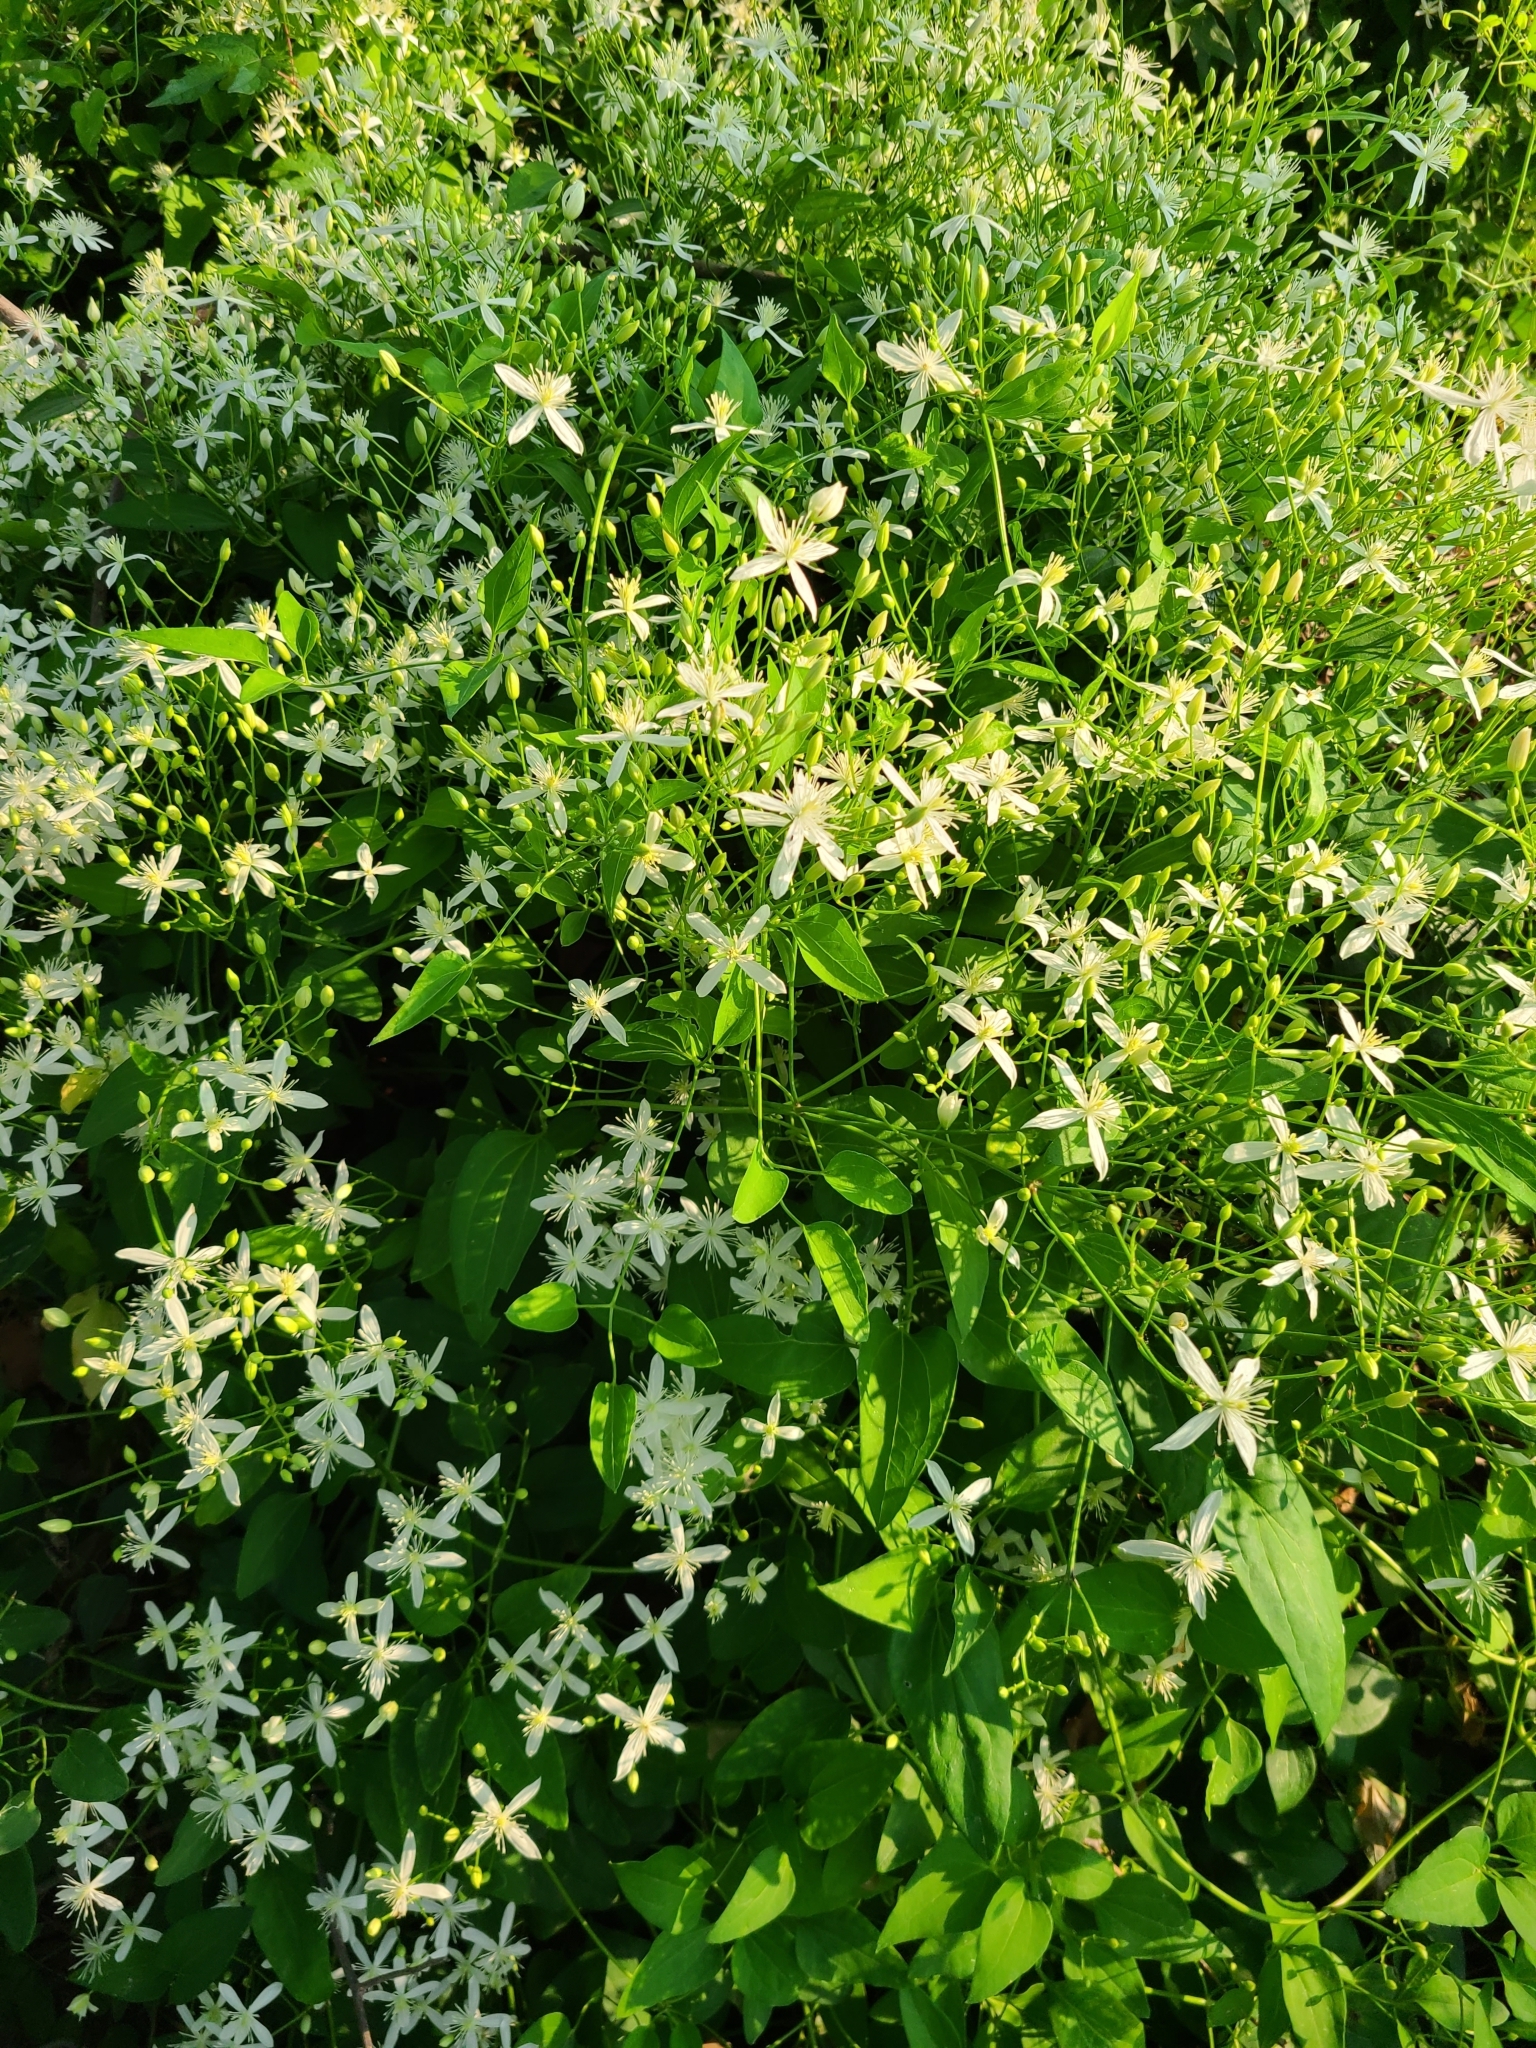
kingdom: Plantae
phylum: Tracheophyta
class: Magnoliopsida
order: Ranunculales
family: Ranunculaceae
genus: Clematis
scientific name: Clematis terniflora
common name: Sweet autumn clematis
